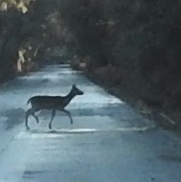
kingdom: Animalia
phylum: Chordata
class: Mammalia
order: Artiodactyla
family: Cervidae
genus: Dama
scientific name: Dama dama
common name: Fallow deer
